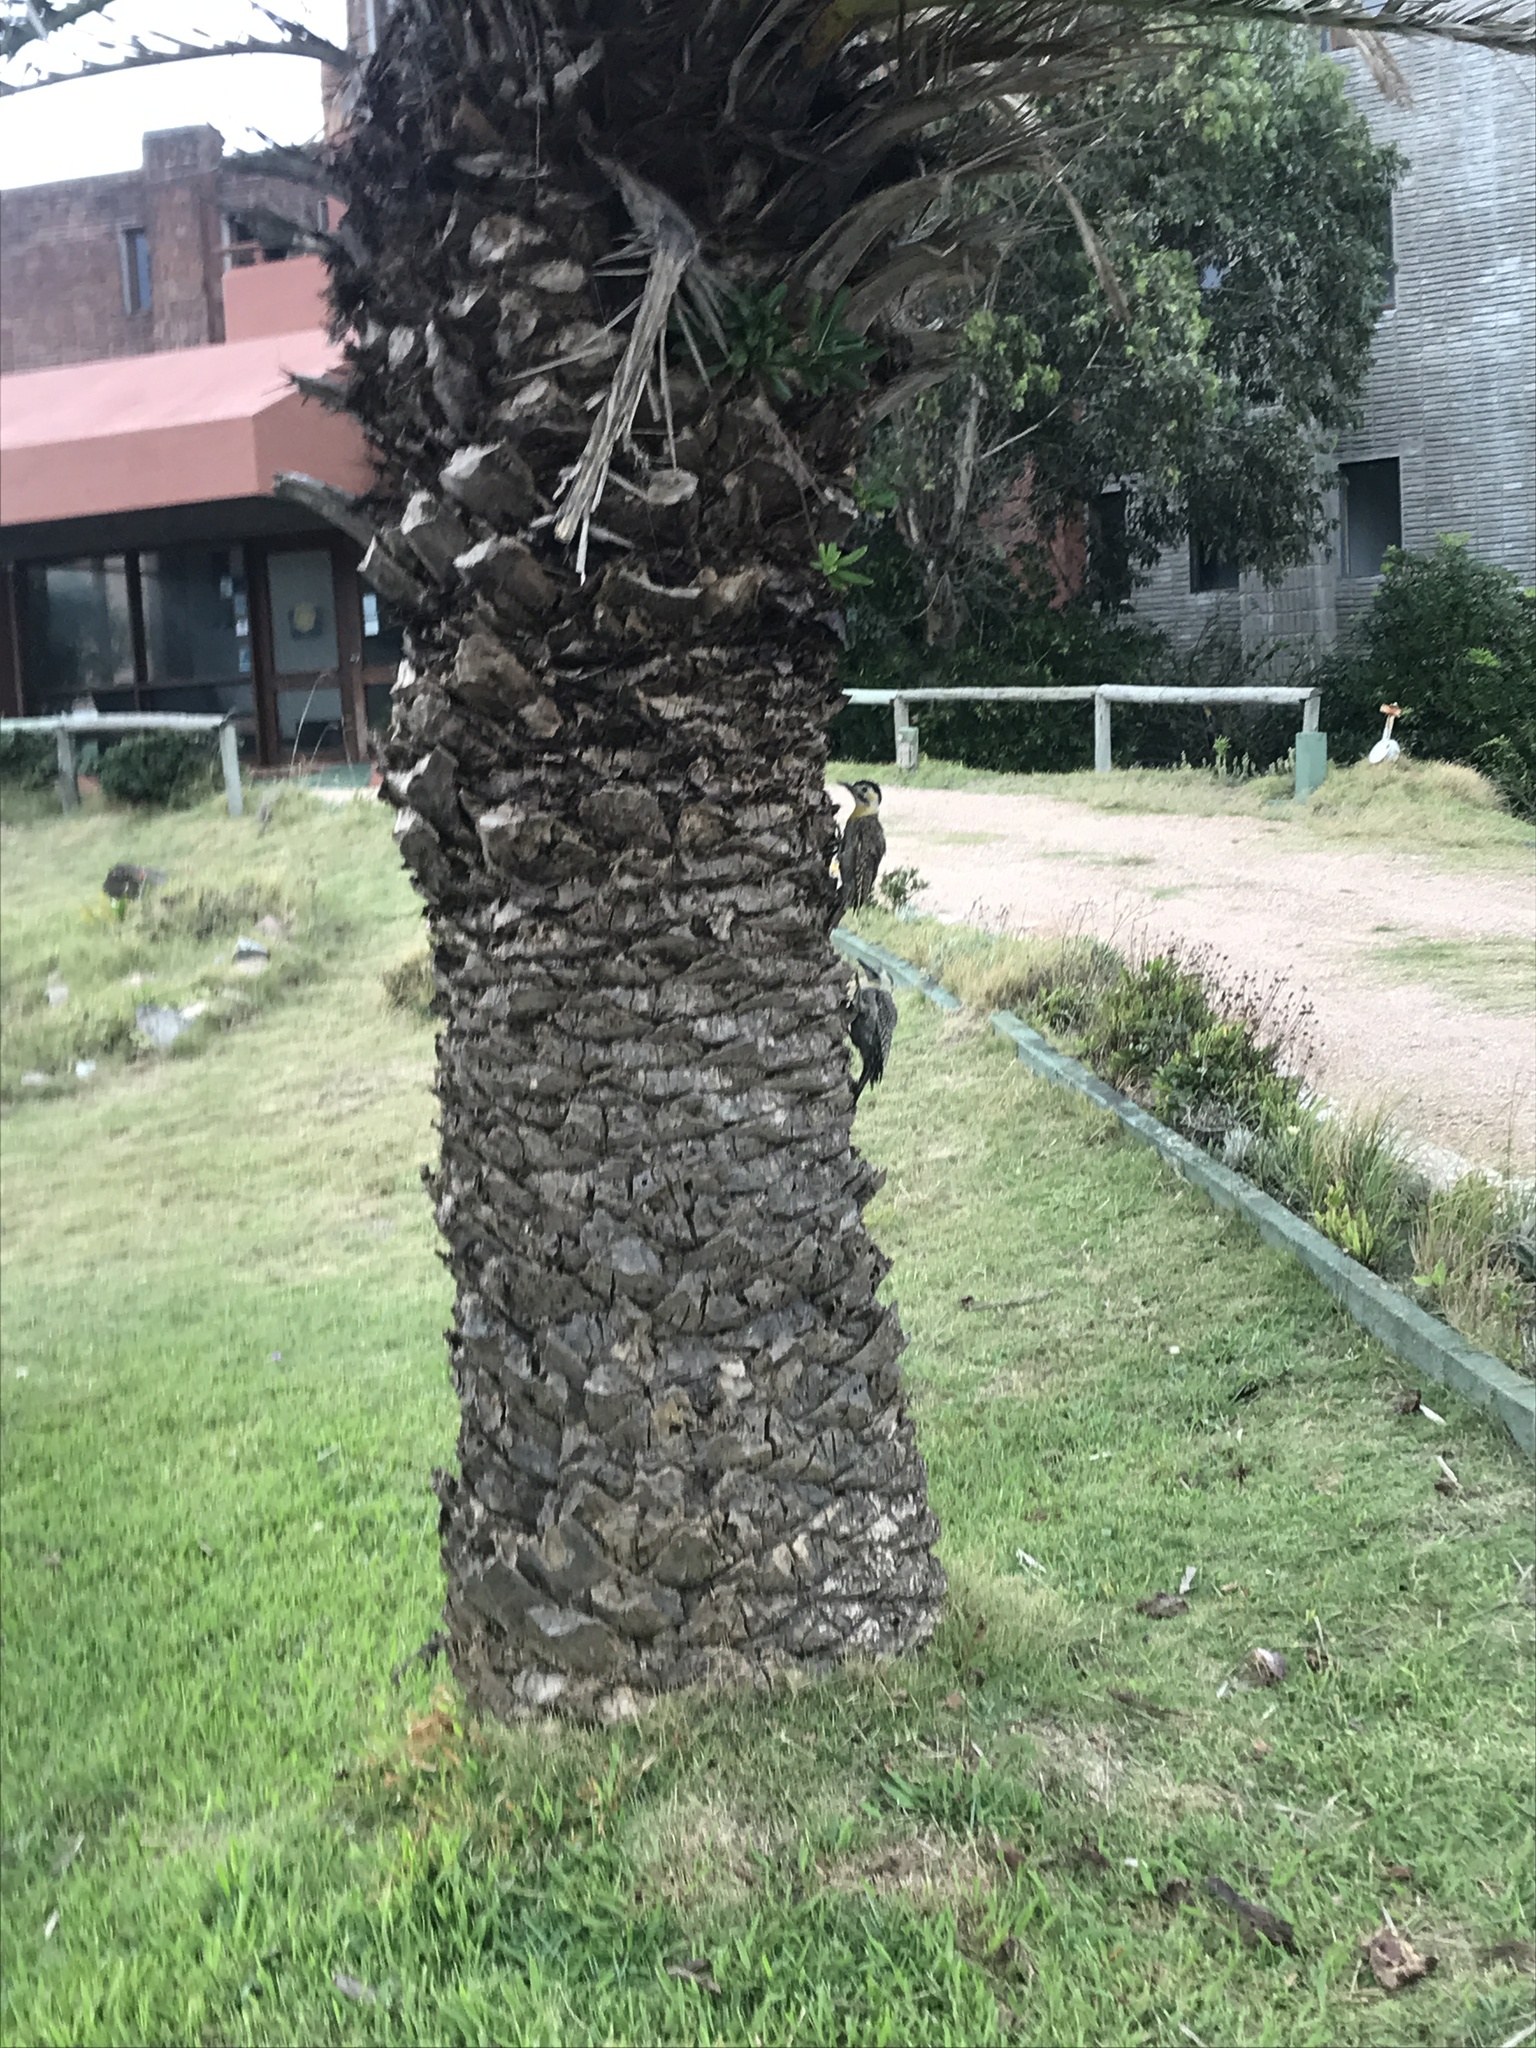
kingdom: Animalia
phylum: Chordata
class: Aves
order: Piciformes
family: Picidae
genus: Colaptes
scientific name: Colaptes campestris
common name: Campo flicker
